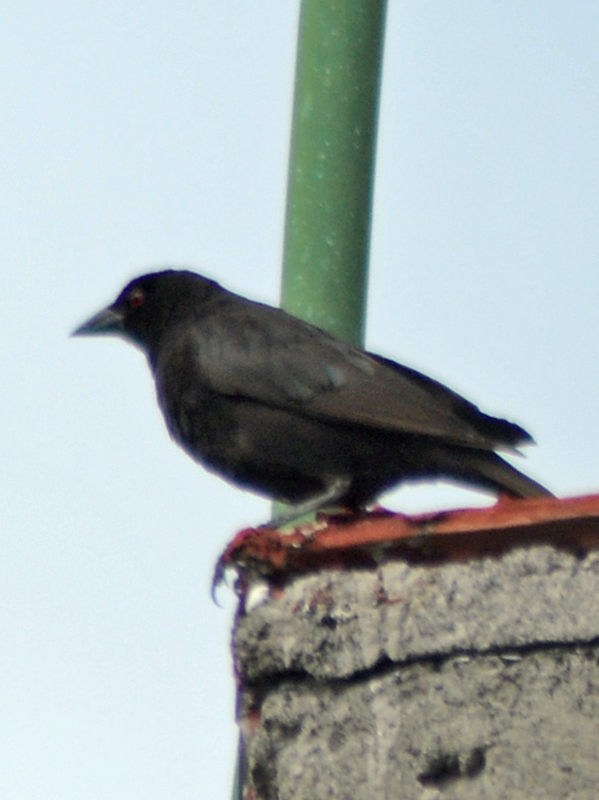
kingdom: Animalia
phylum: Chordata
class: Aves
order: Passeriformes
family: Icteridae
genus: Molothrus
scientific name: Molothrus aeneus
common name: Bronzed cowbird
